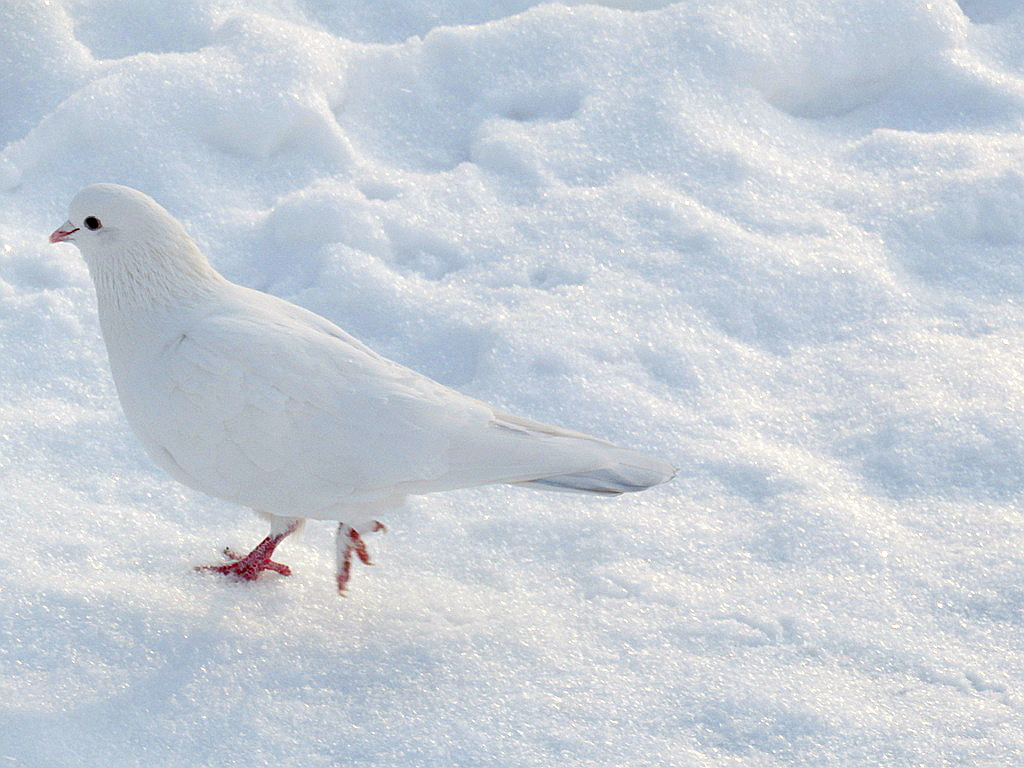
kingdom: Animalia
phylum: Chordata
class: Aves
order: Columbiformes
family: Columbidae
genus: Columba
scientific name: Columba livia
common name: Rock pigeon
